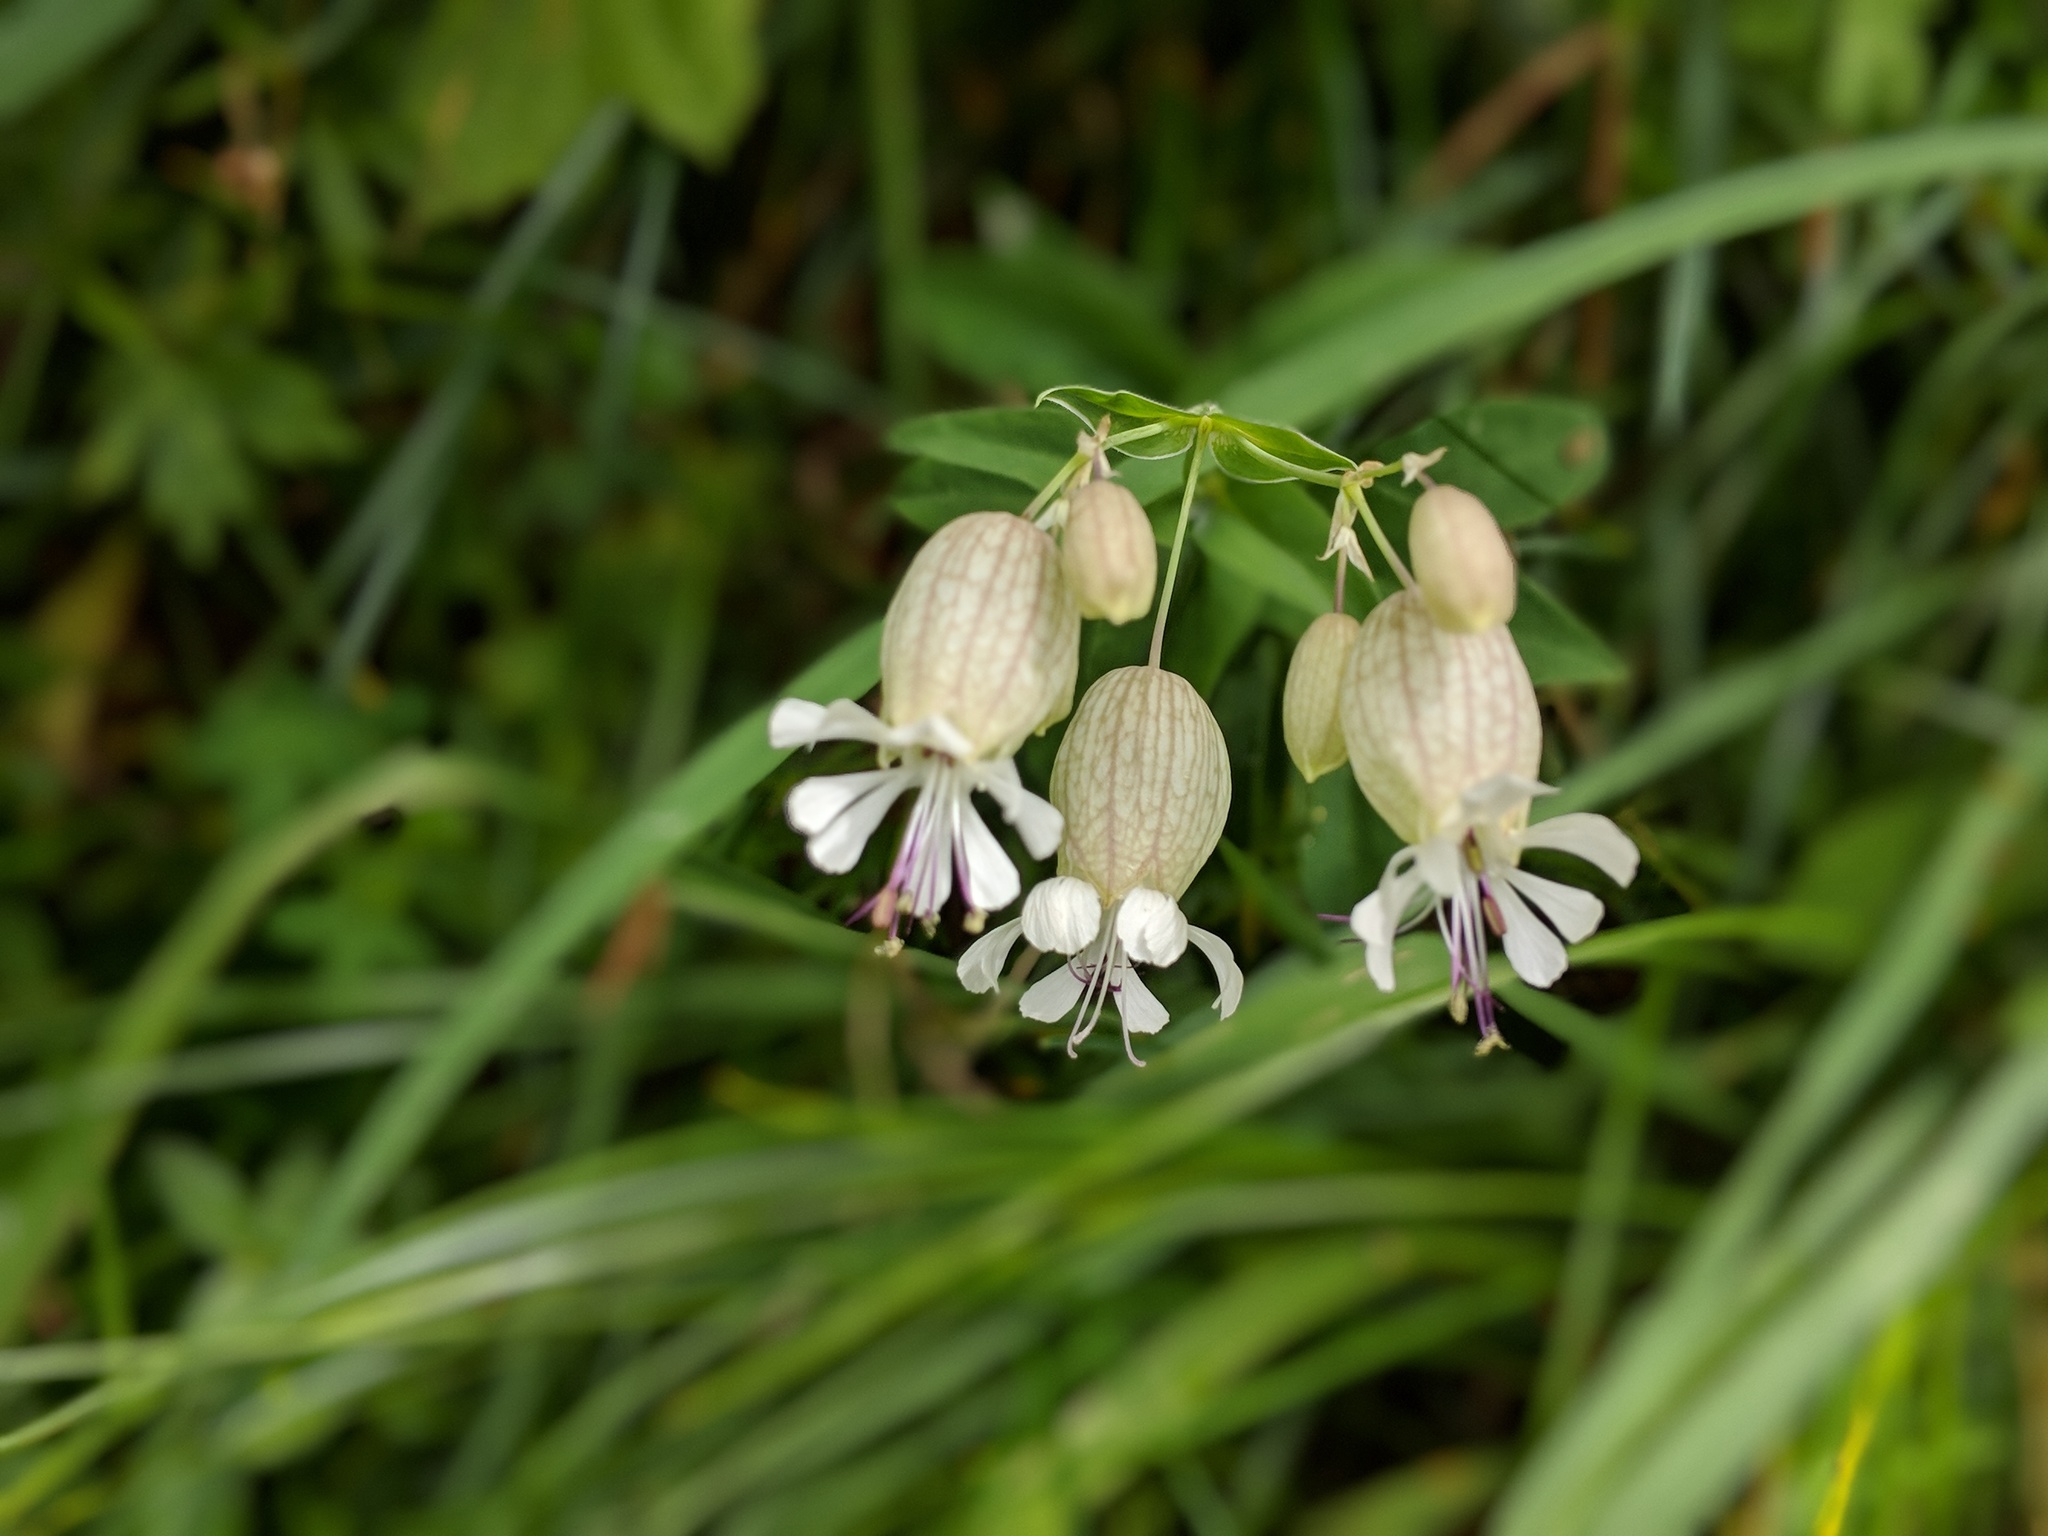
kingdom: Plantae
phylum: Tracheophyta
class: Magnoliopsida
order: Caryophyllales
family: Caryophyllaceae
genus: Silene
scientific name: Silene vulgaris
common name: Bladder campion
